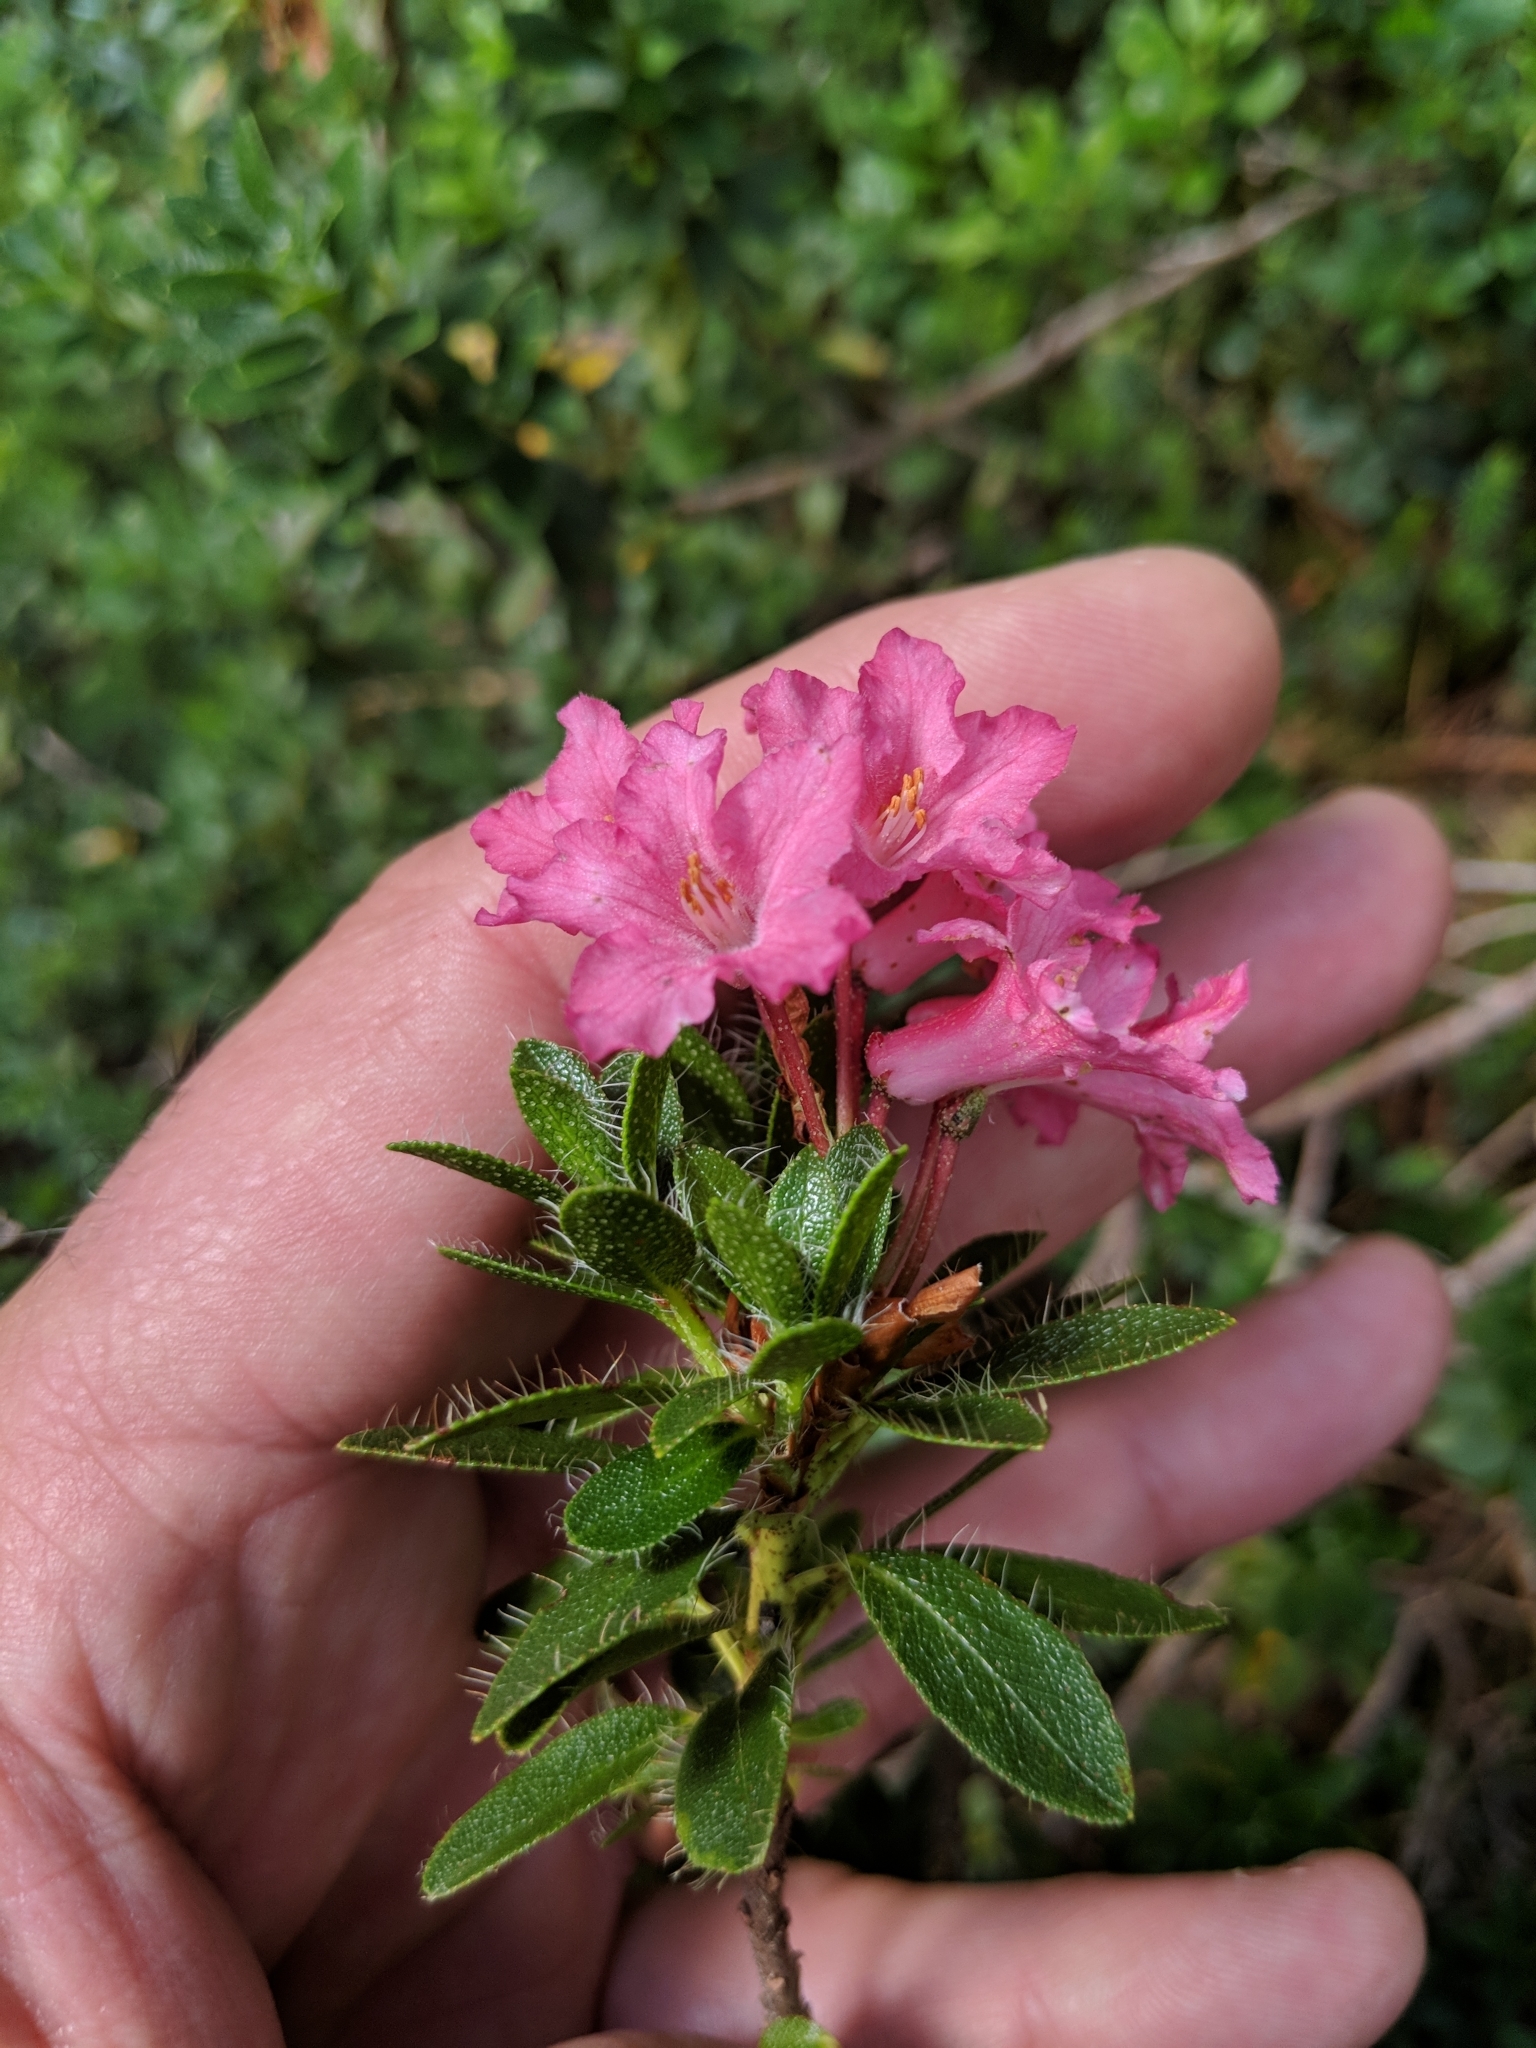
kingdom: Plantae
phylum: Tracheophyta
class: Magnoliopsida
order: Ericales
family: Ericaceae
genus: Rhododendron
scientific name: Rhododendron hirsutum
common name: Hairy alpenrose
